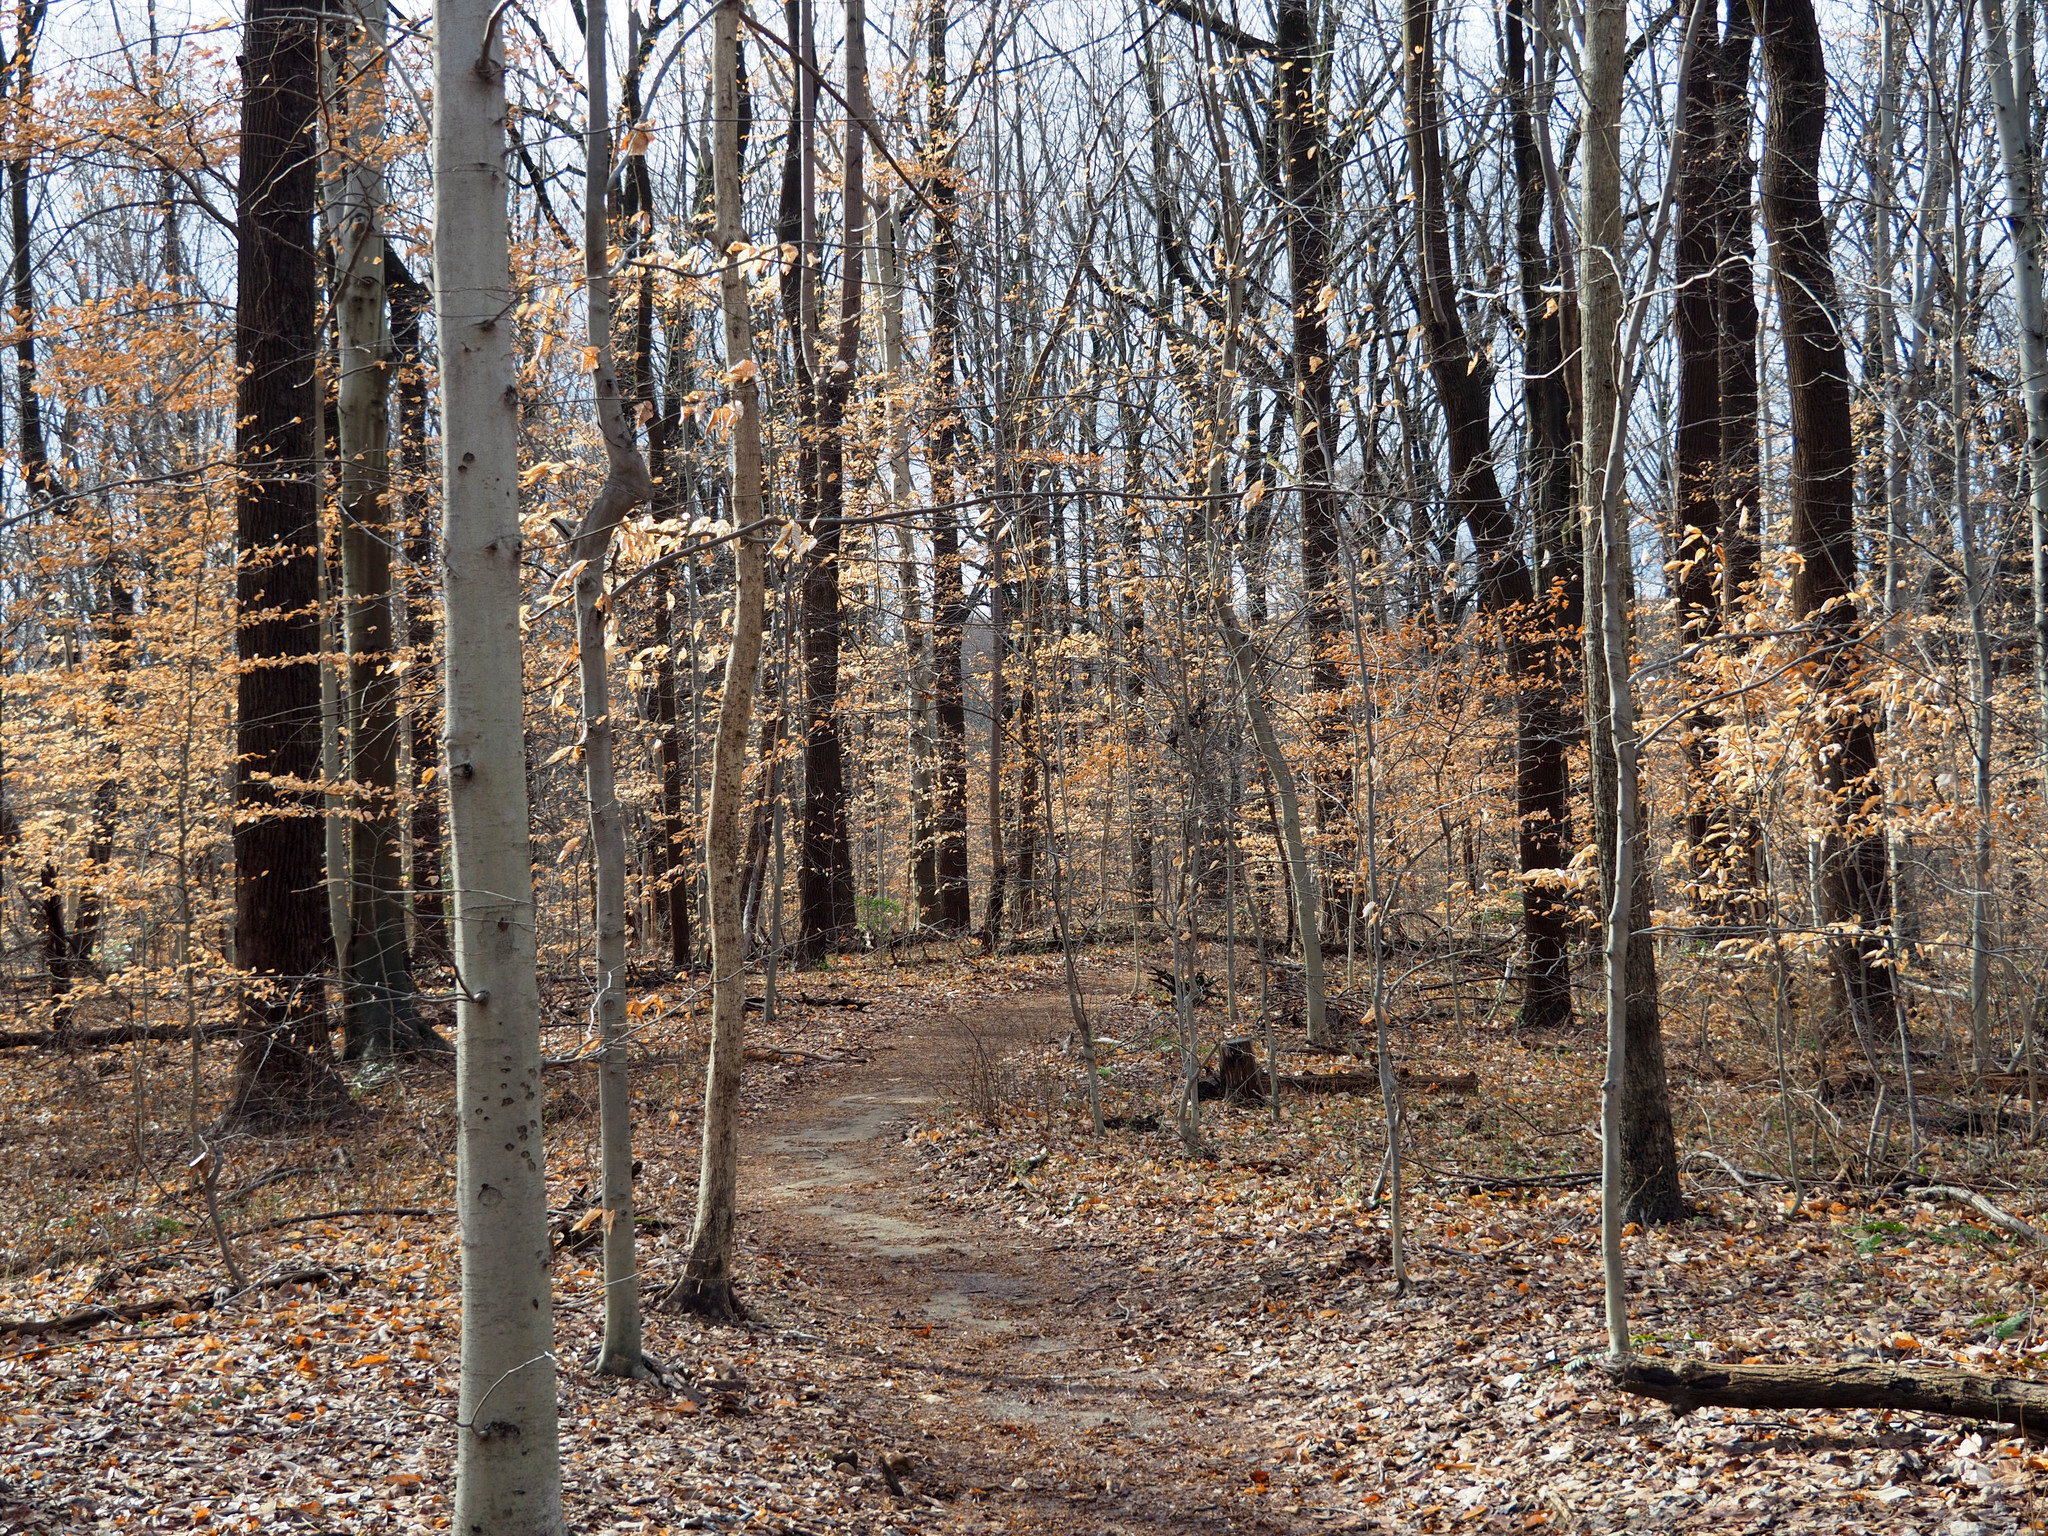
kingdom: Plantae
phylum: Tracheophyta
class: Magnoliopsida
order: Fagales
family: Fagaceae
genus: Fagus
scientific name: Fagus grandifolia
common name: American beech
